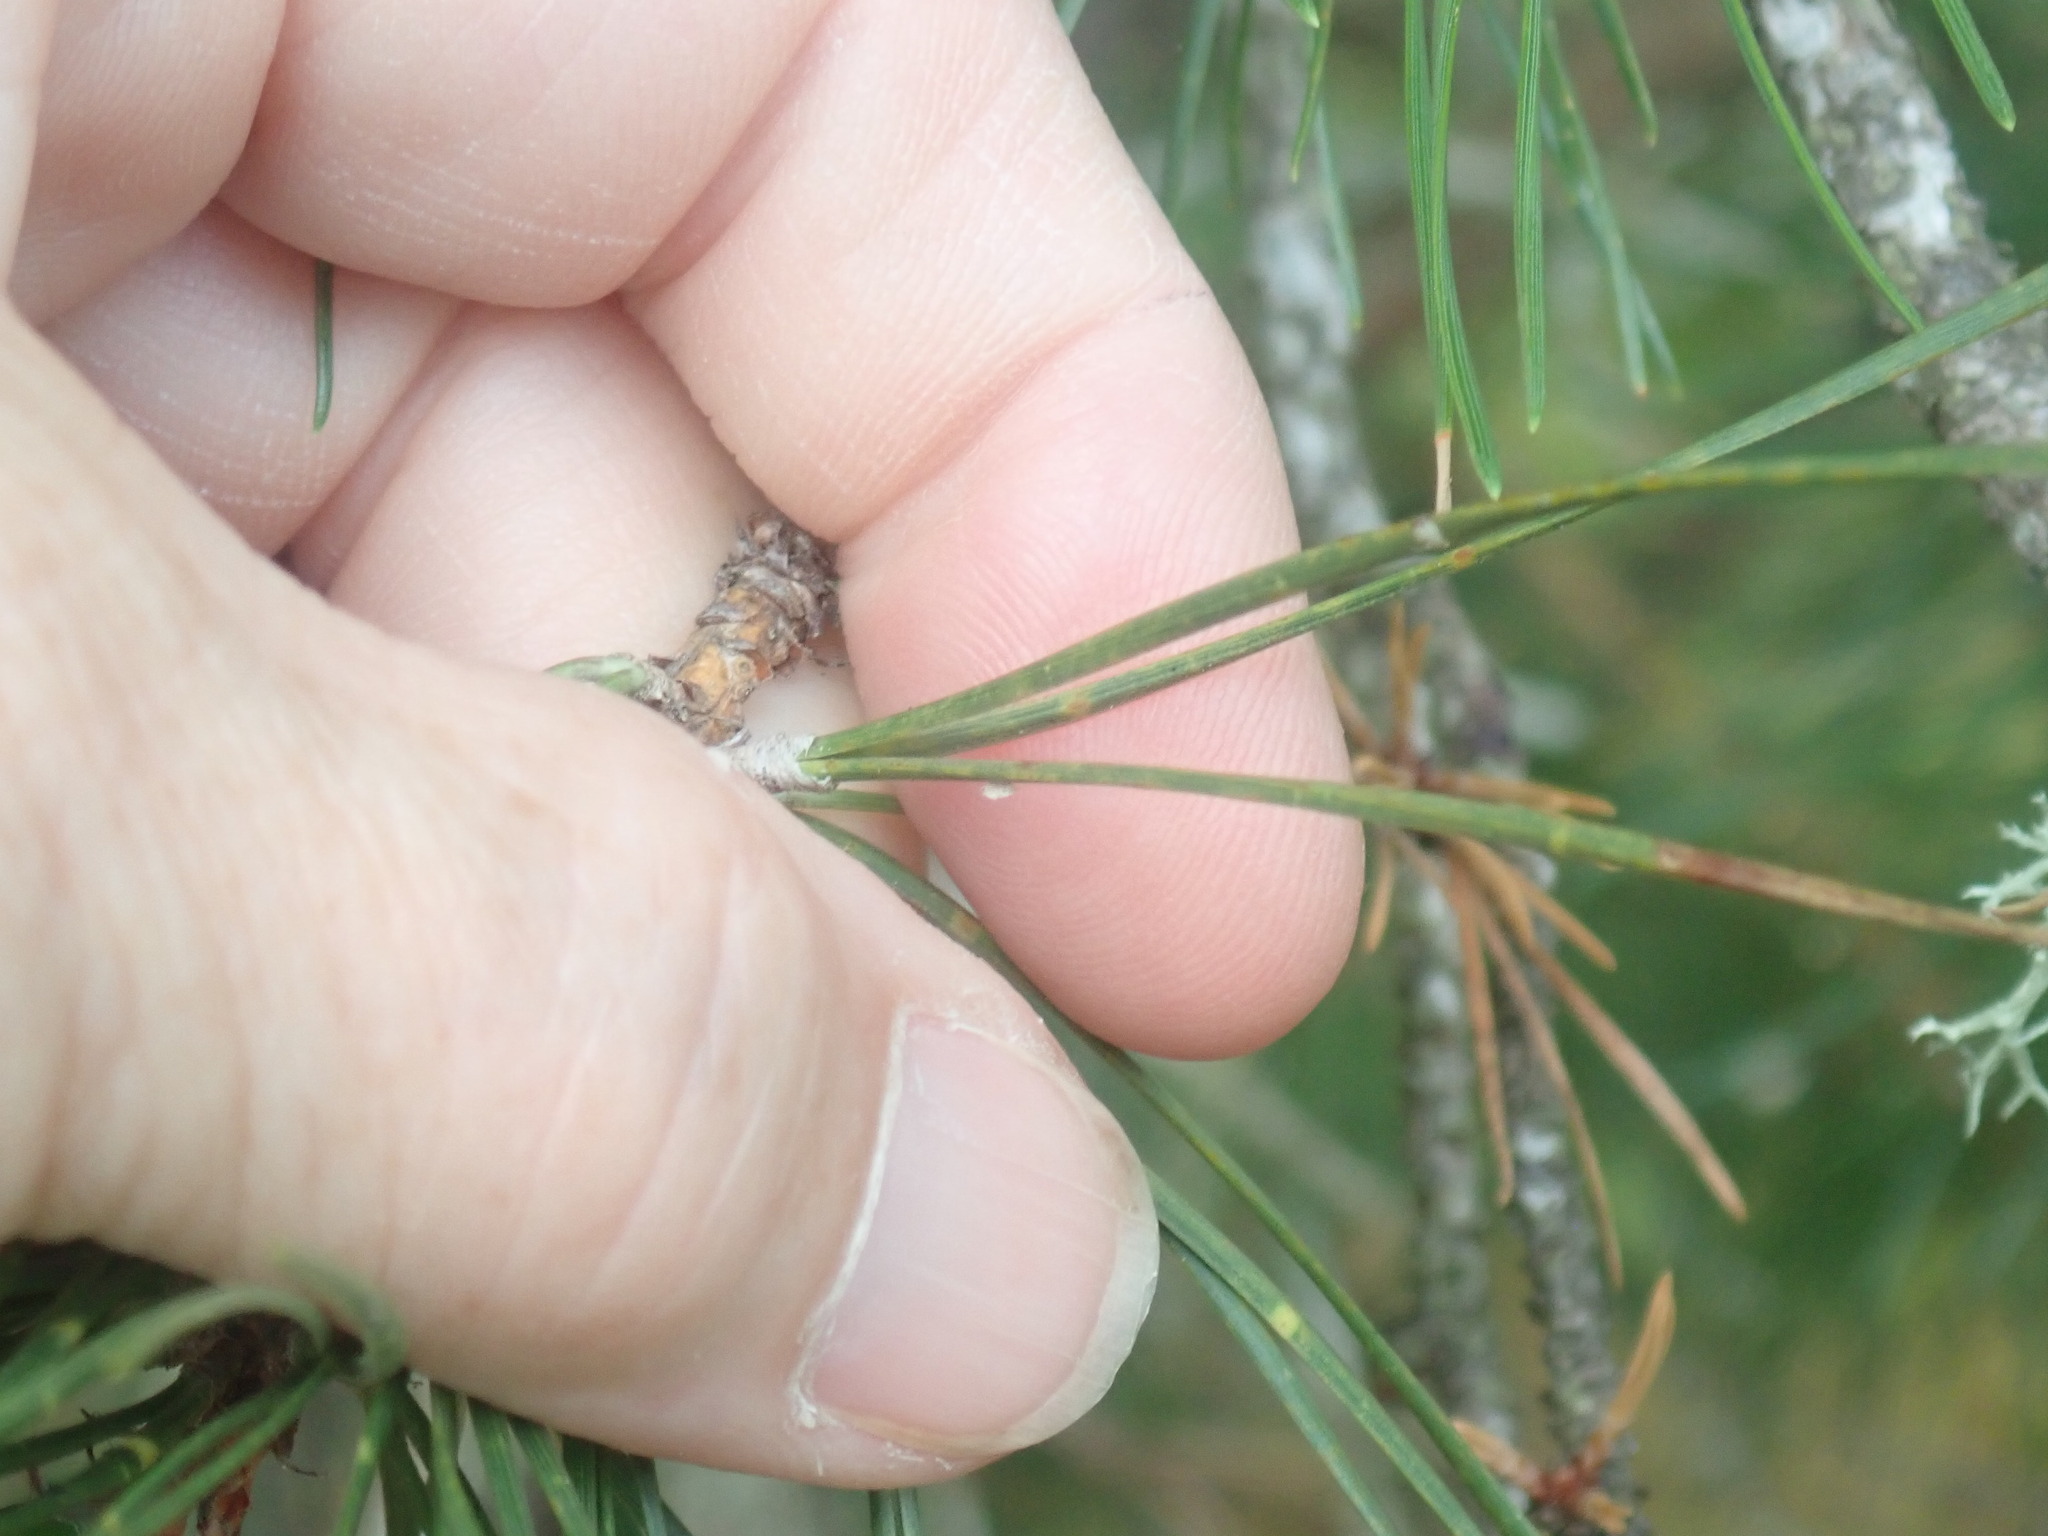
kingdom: Plantae
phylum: Tracheophyta
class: Pinopsida
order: Pinales
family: Pinaceae
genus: Pinus
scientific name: Pinus rigida
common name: Pitch pine
